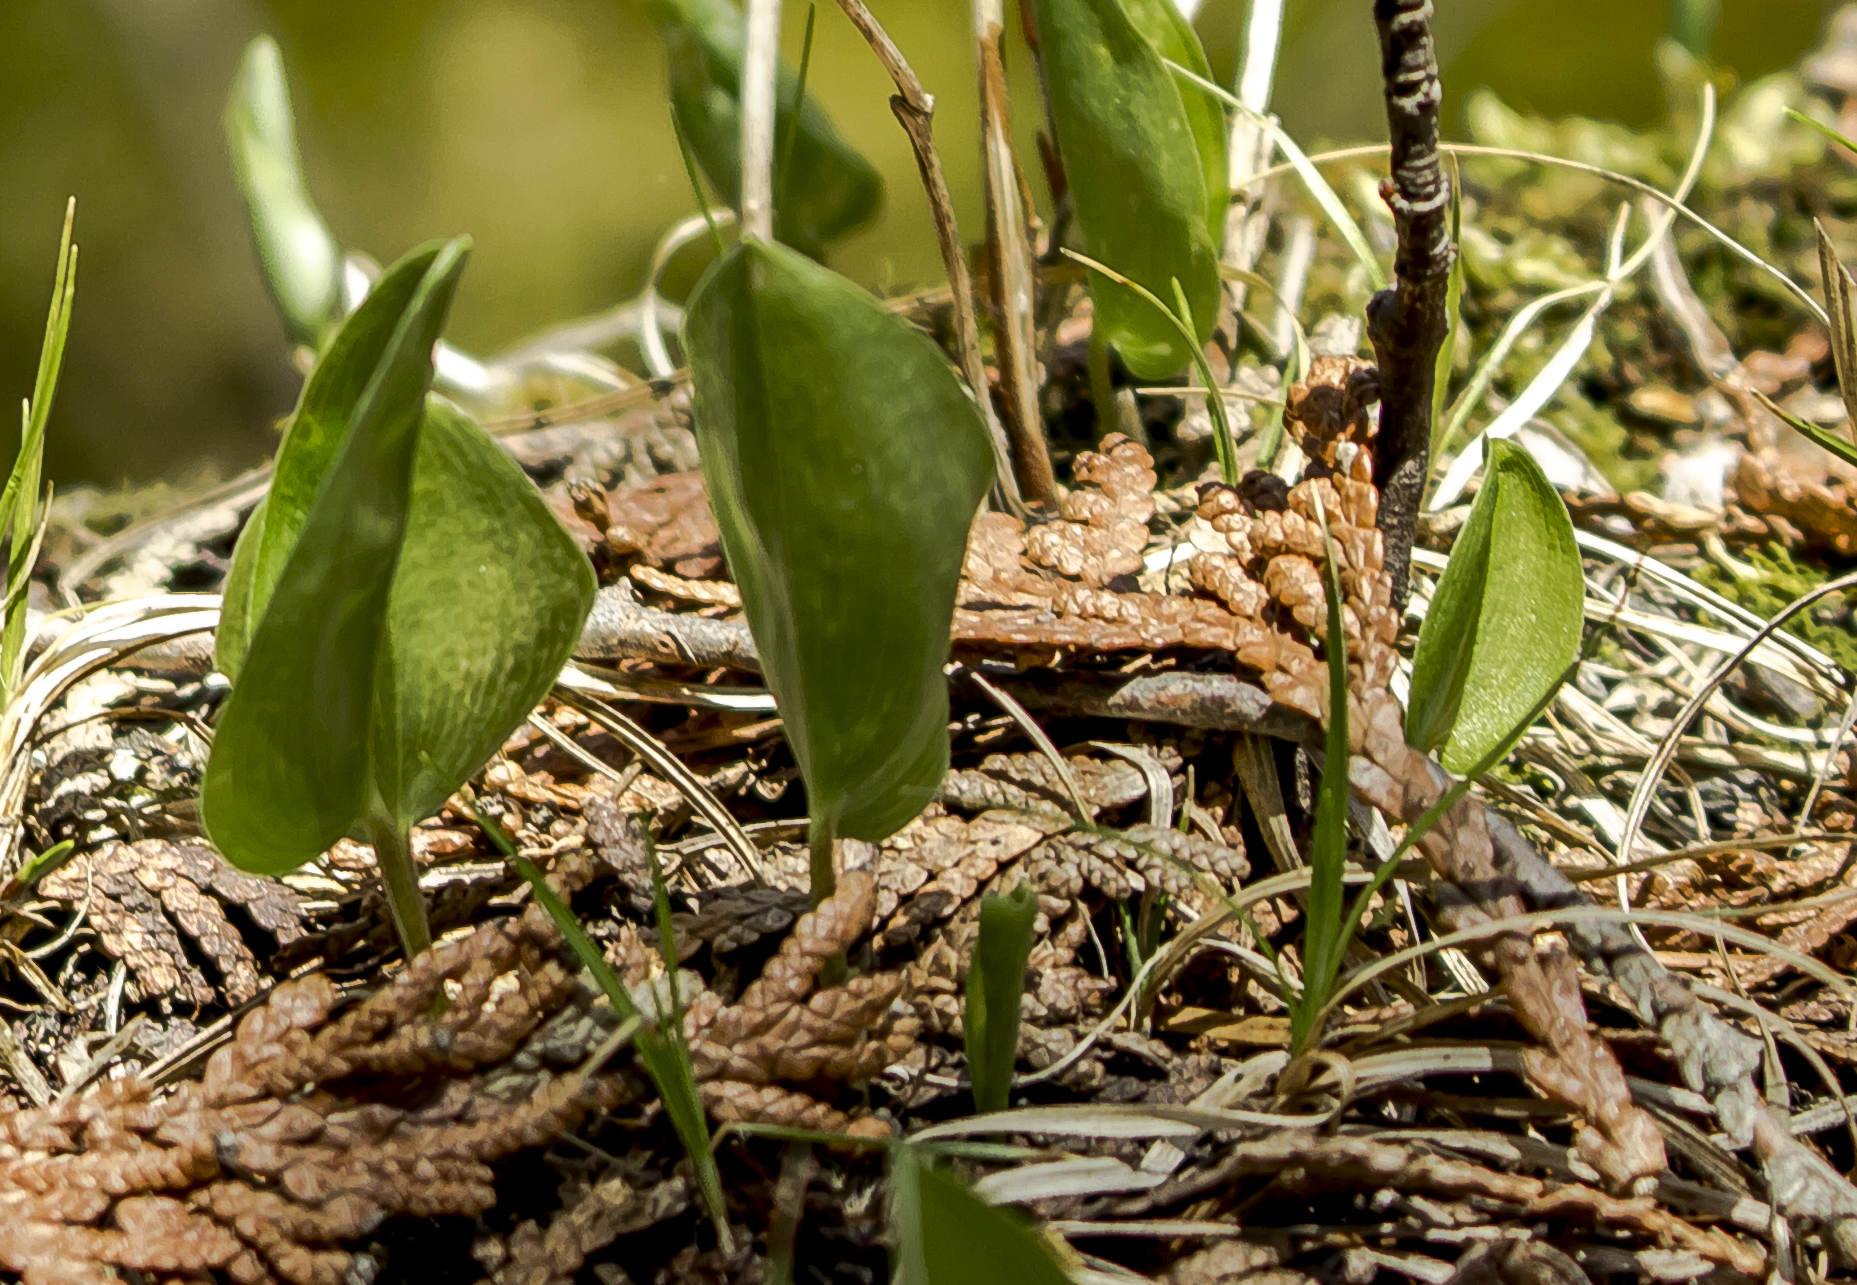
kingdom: Plantae
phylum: Tracheophyta
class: Liliopsida
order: Asparagales
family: Asparagaceae
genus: Maianthemum
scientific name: Maianthemum canadense
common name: False lily-of-the-valley
